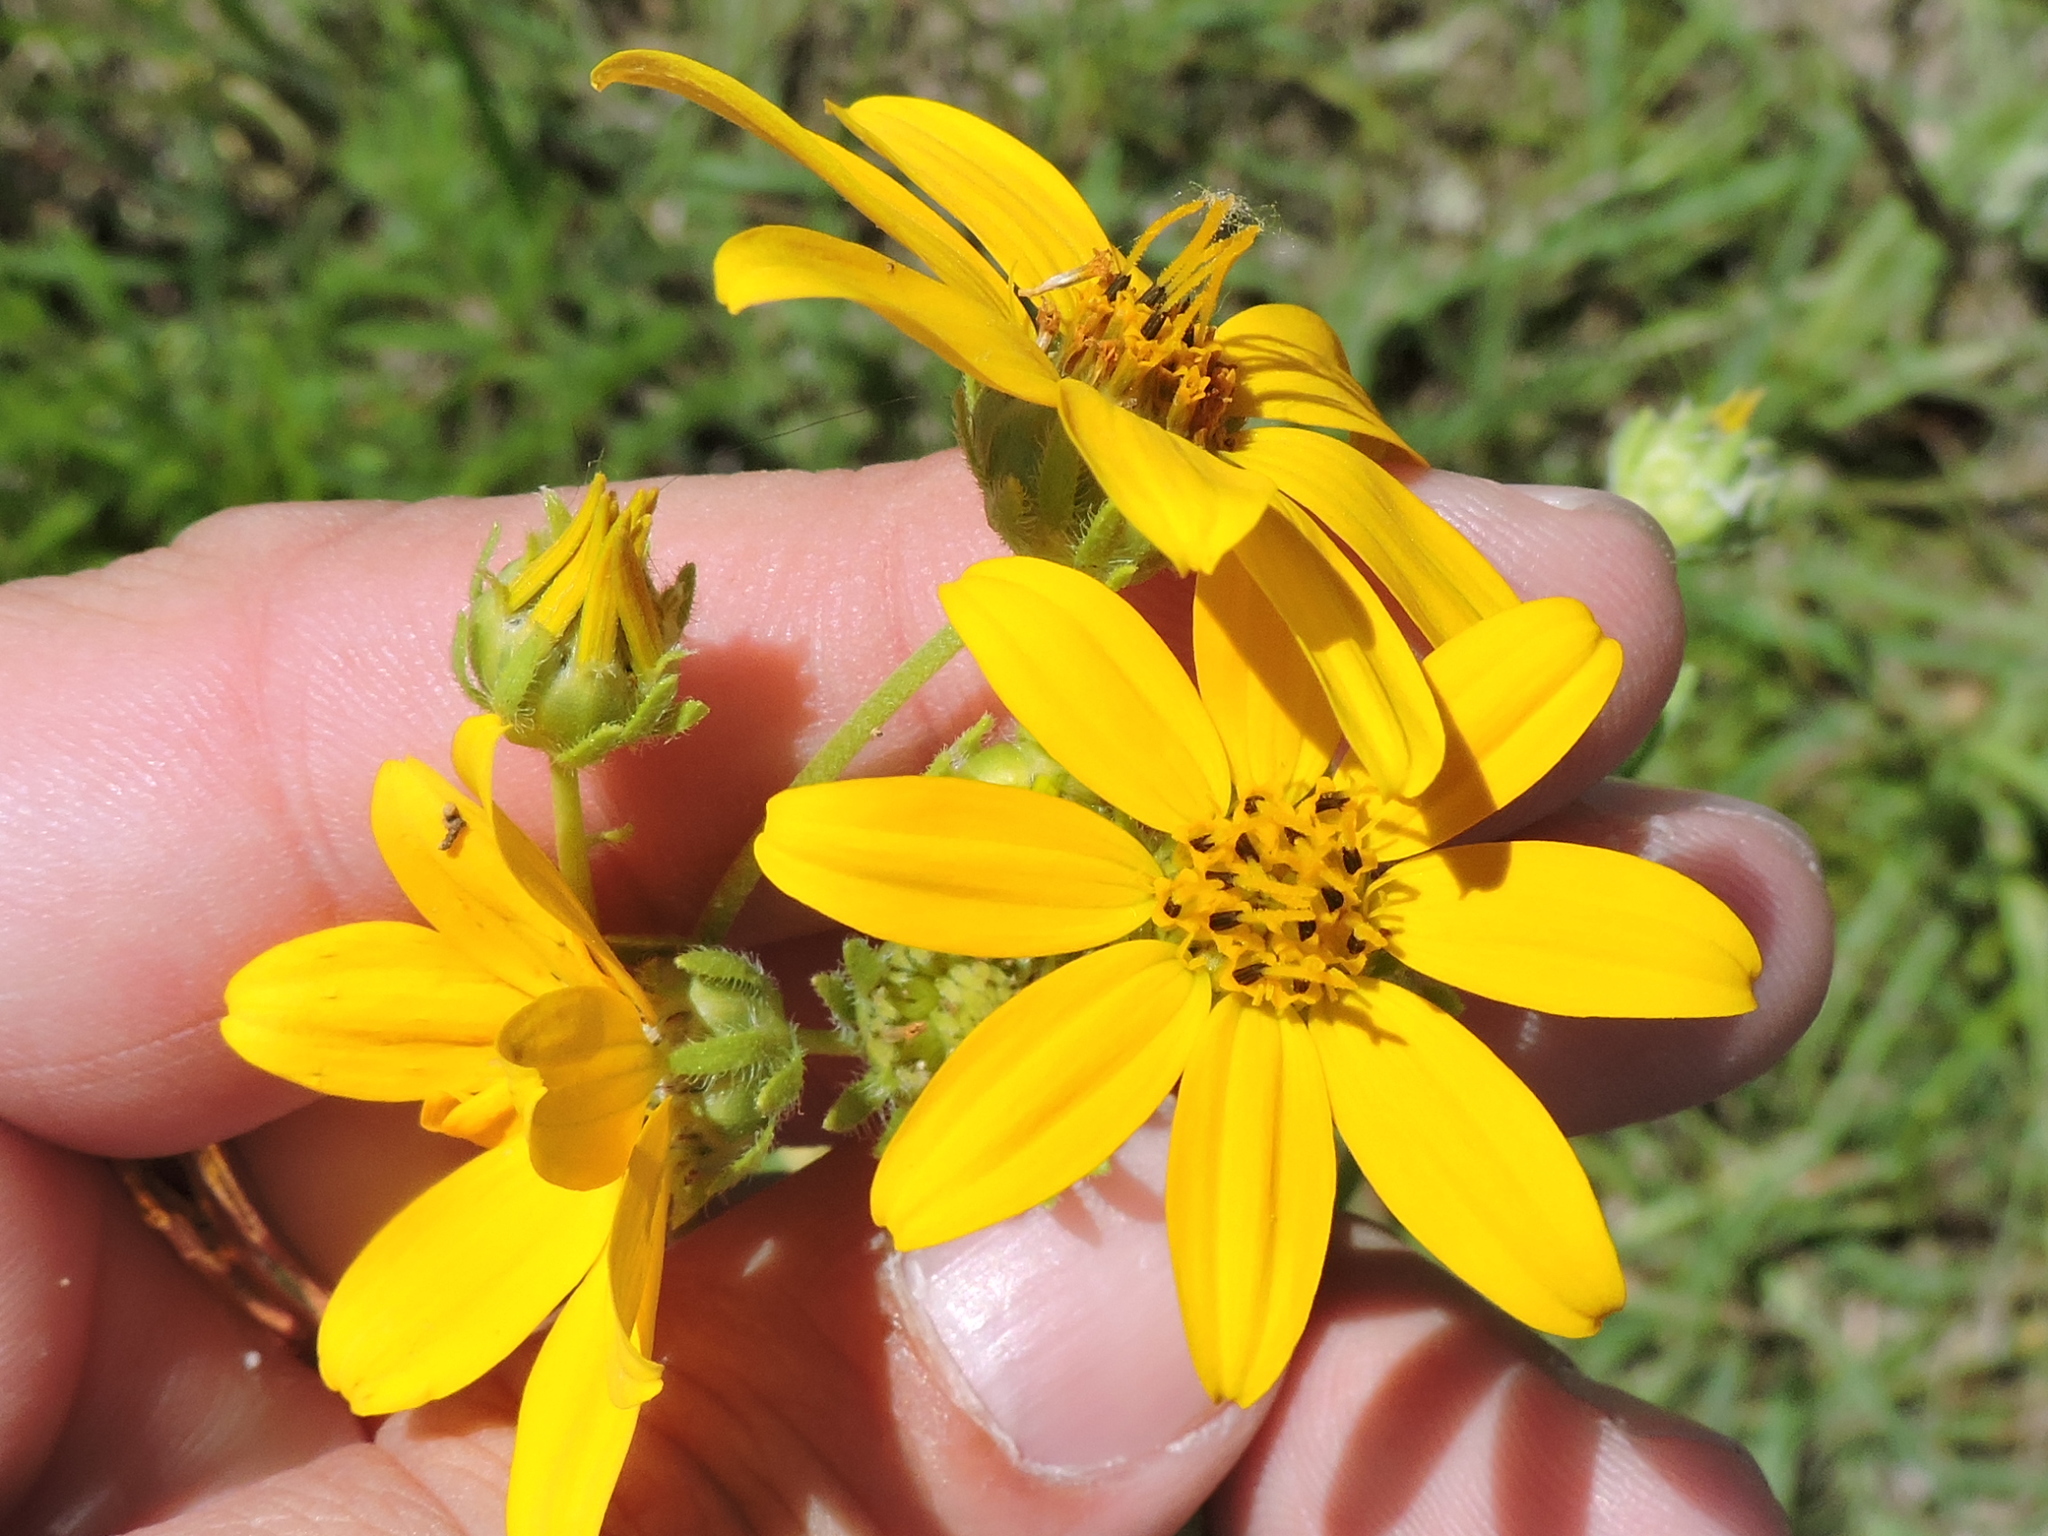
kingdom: Plantae
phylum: Tracheophyta
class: Magnoliopsida
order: Asterales
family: Asteraceae
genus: Engelmannia
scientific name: Engelmannia peristenia
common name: Engelmann's daisy
